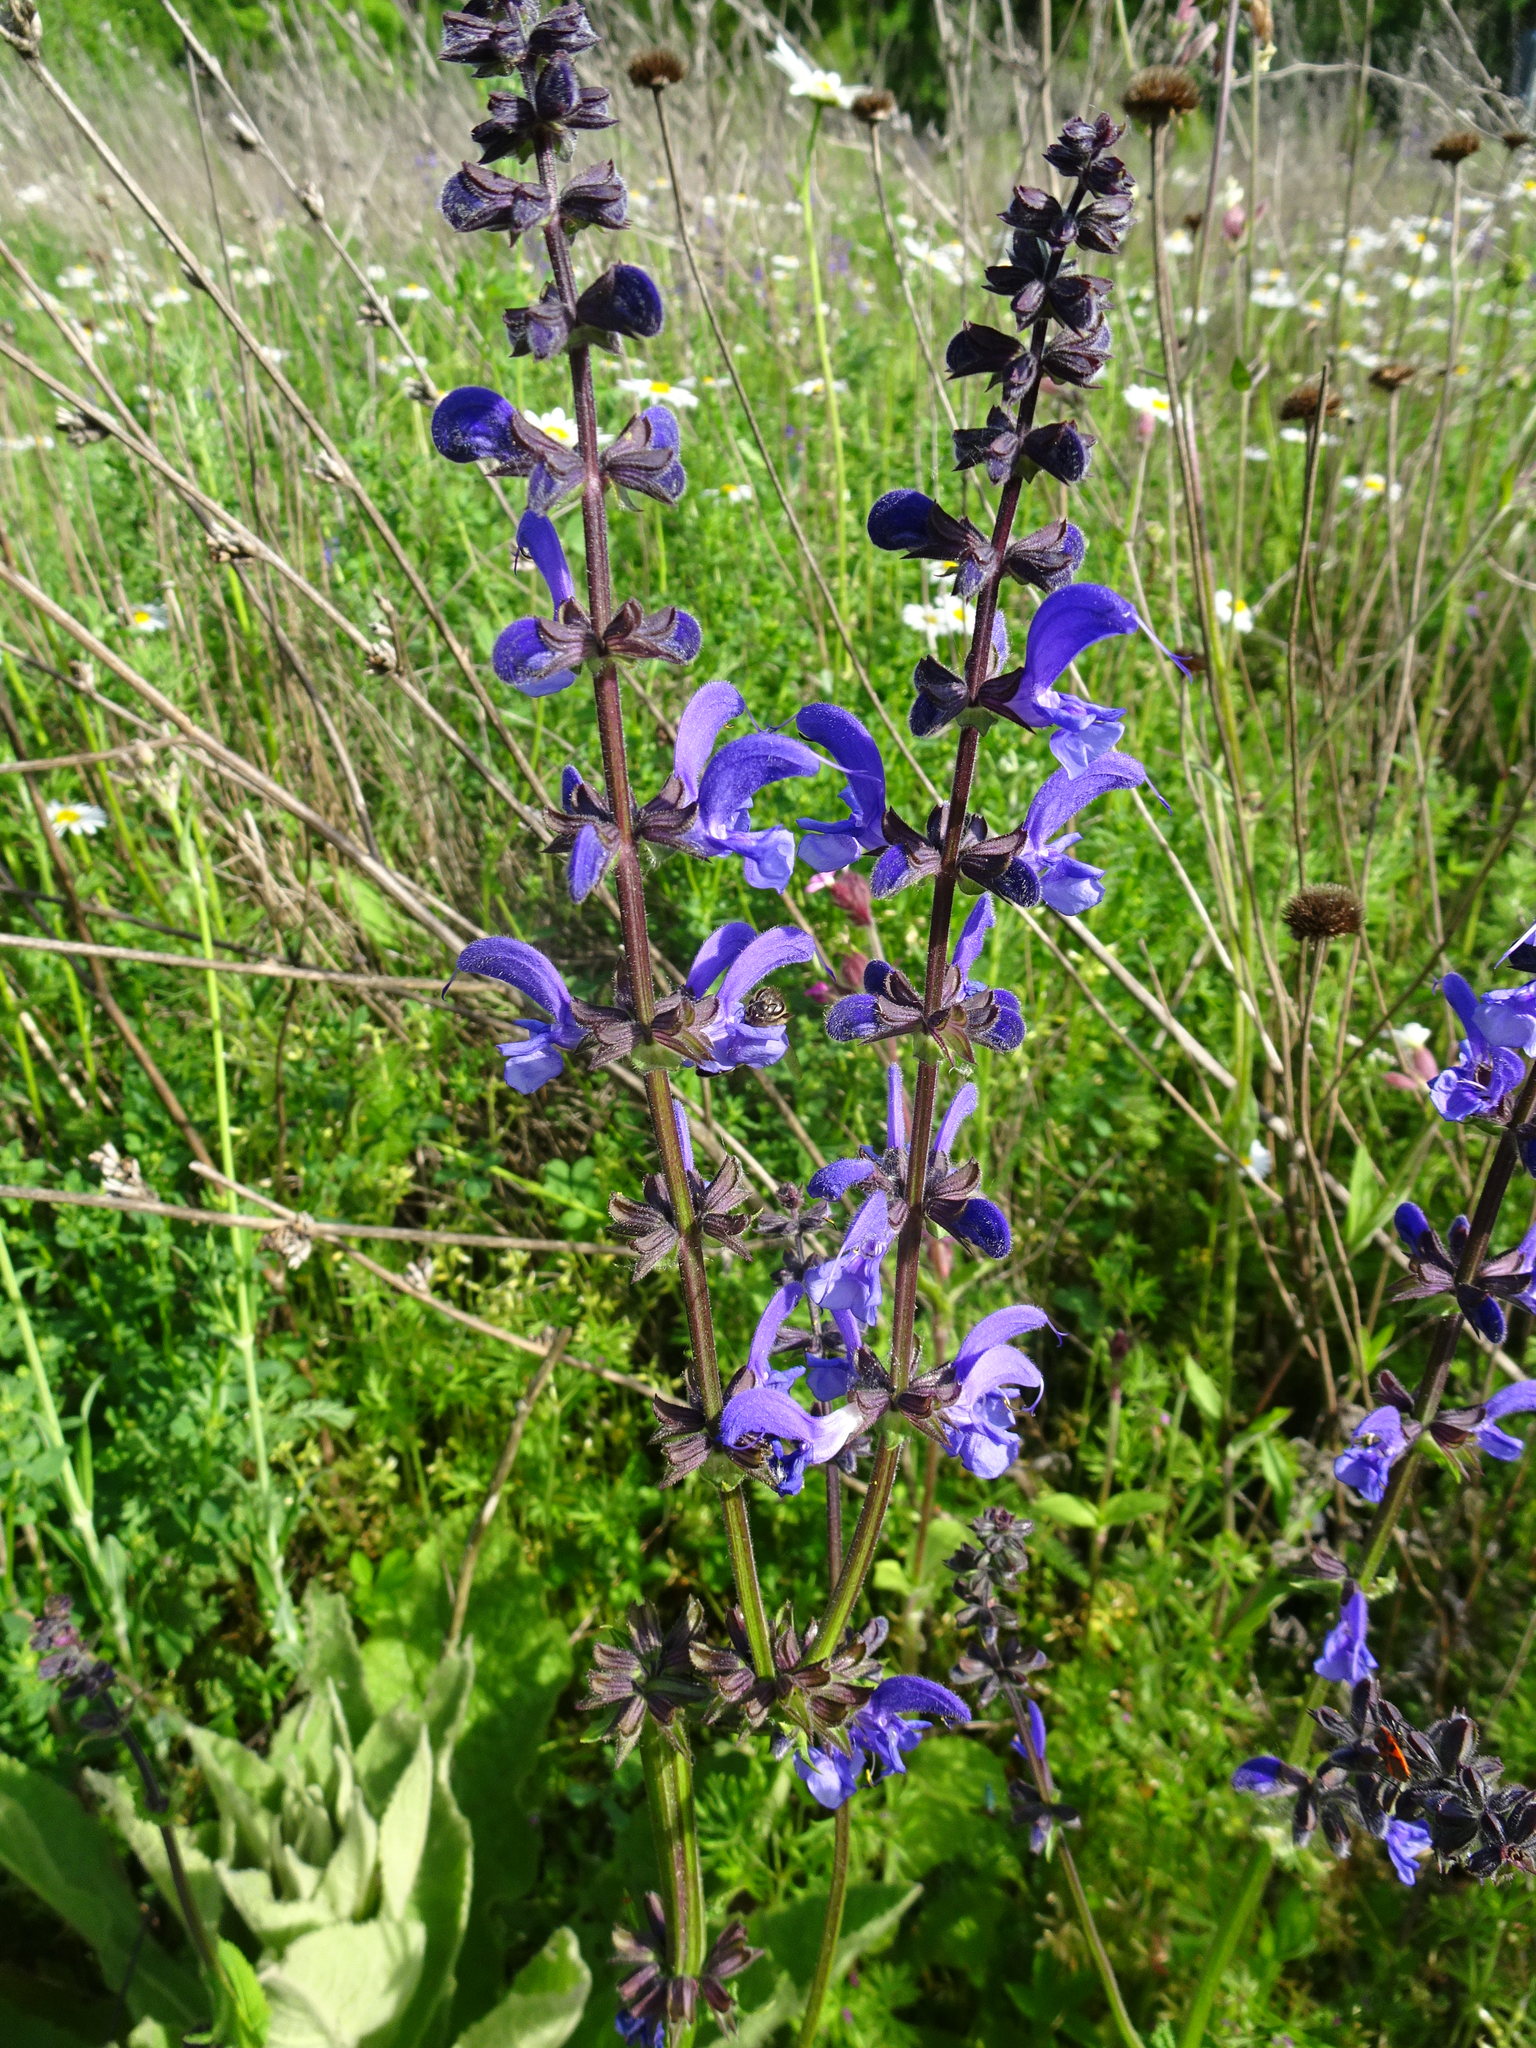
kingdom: Plantae
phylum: Tracheophyta
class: Magnoliopsida
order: Lamiales
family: Lamiaceae
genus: Salvia
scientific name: Salvia pratensis
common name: Meadow sage
